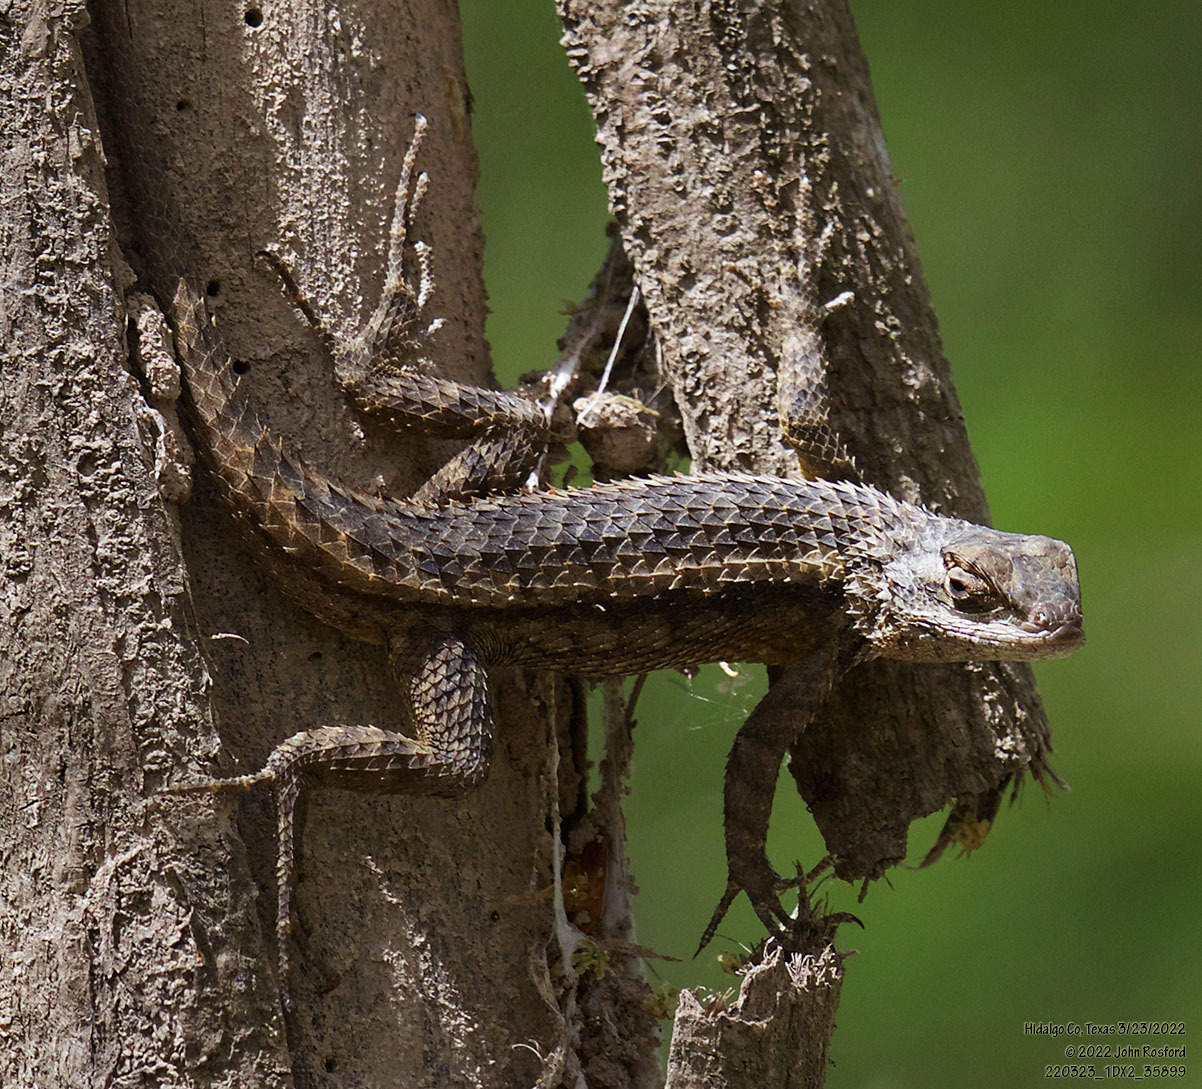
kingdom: Animalia
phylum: Chordata
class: Squamata
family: Phrynosomatidae
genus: Sceloporus
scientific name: Sceloporus olivaceus
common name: Texas spiny lizard
